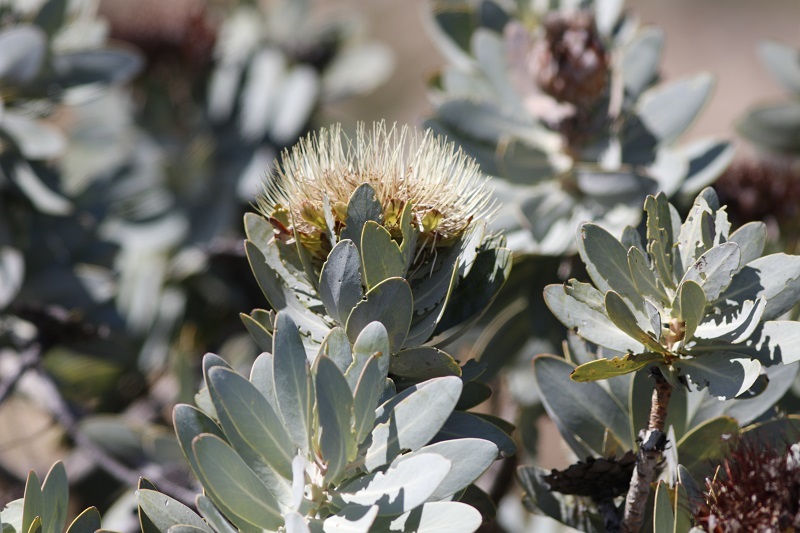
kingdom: Plantae
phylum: Tracheophyta
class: Magnoliopsida
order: Proteales
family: Proteaceae
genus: Protea
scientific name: Protea nitida
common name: Tree protea
